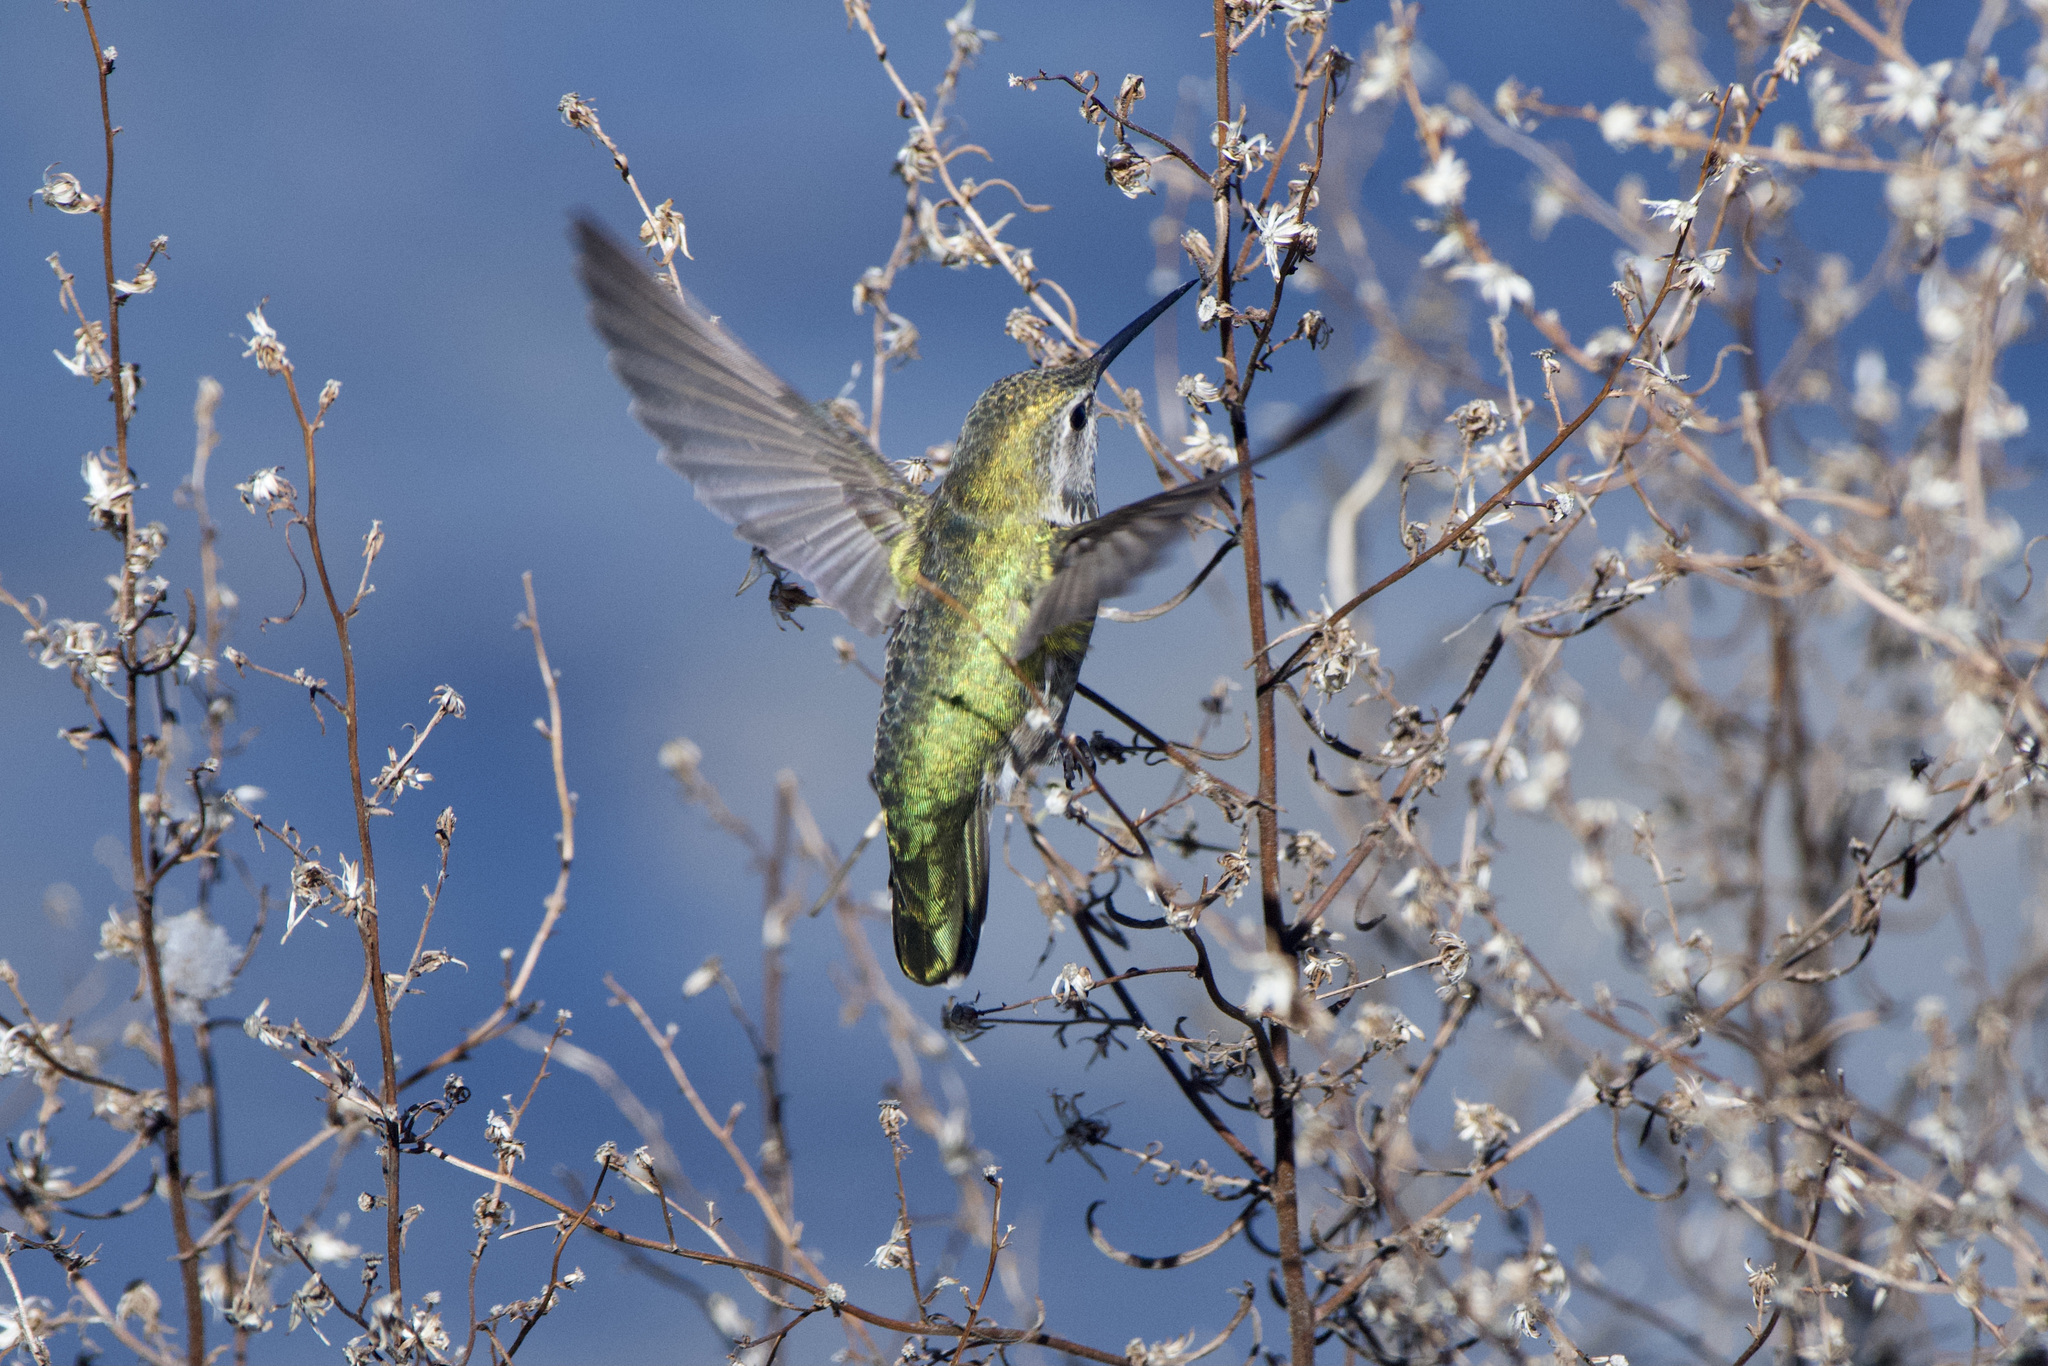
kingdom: Animalia
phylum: Chordata
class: Aves
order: Apodiformes
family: Trochilidae
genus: Calypte
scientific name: Calypte anna
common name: Anna's hummingbird
